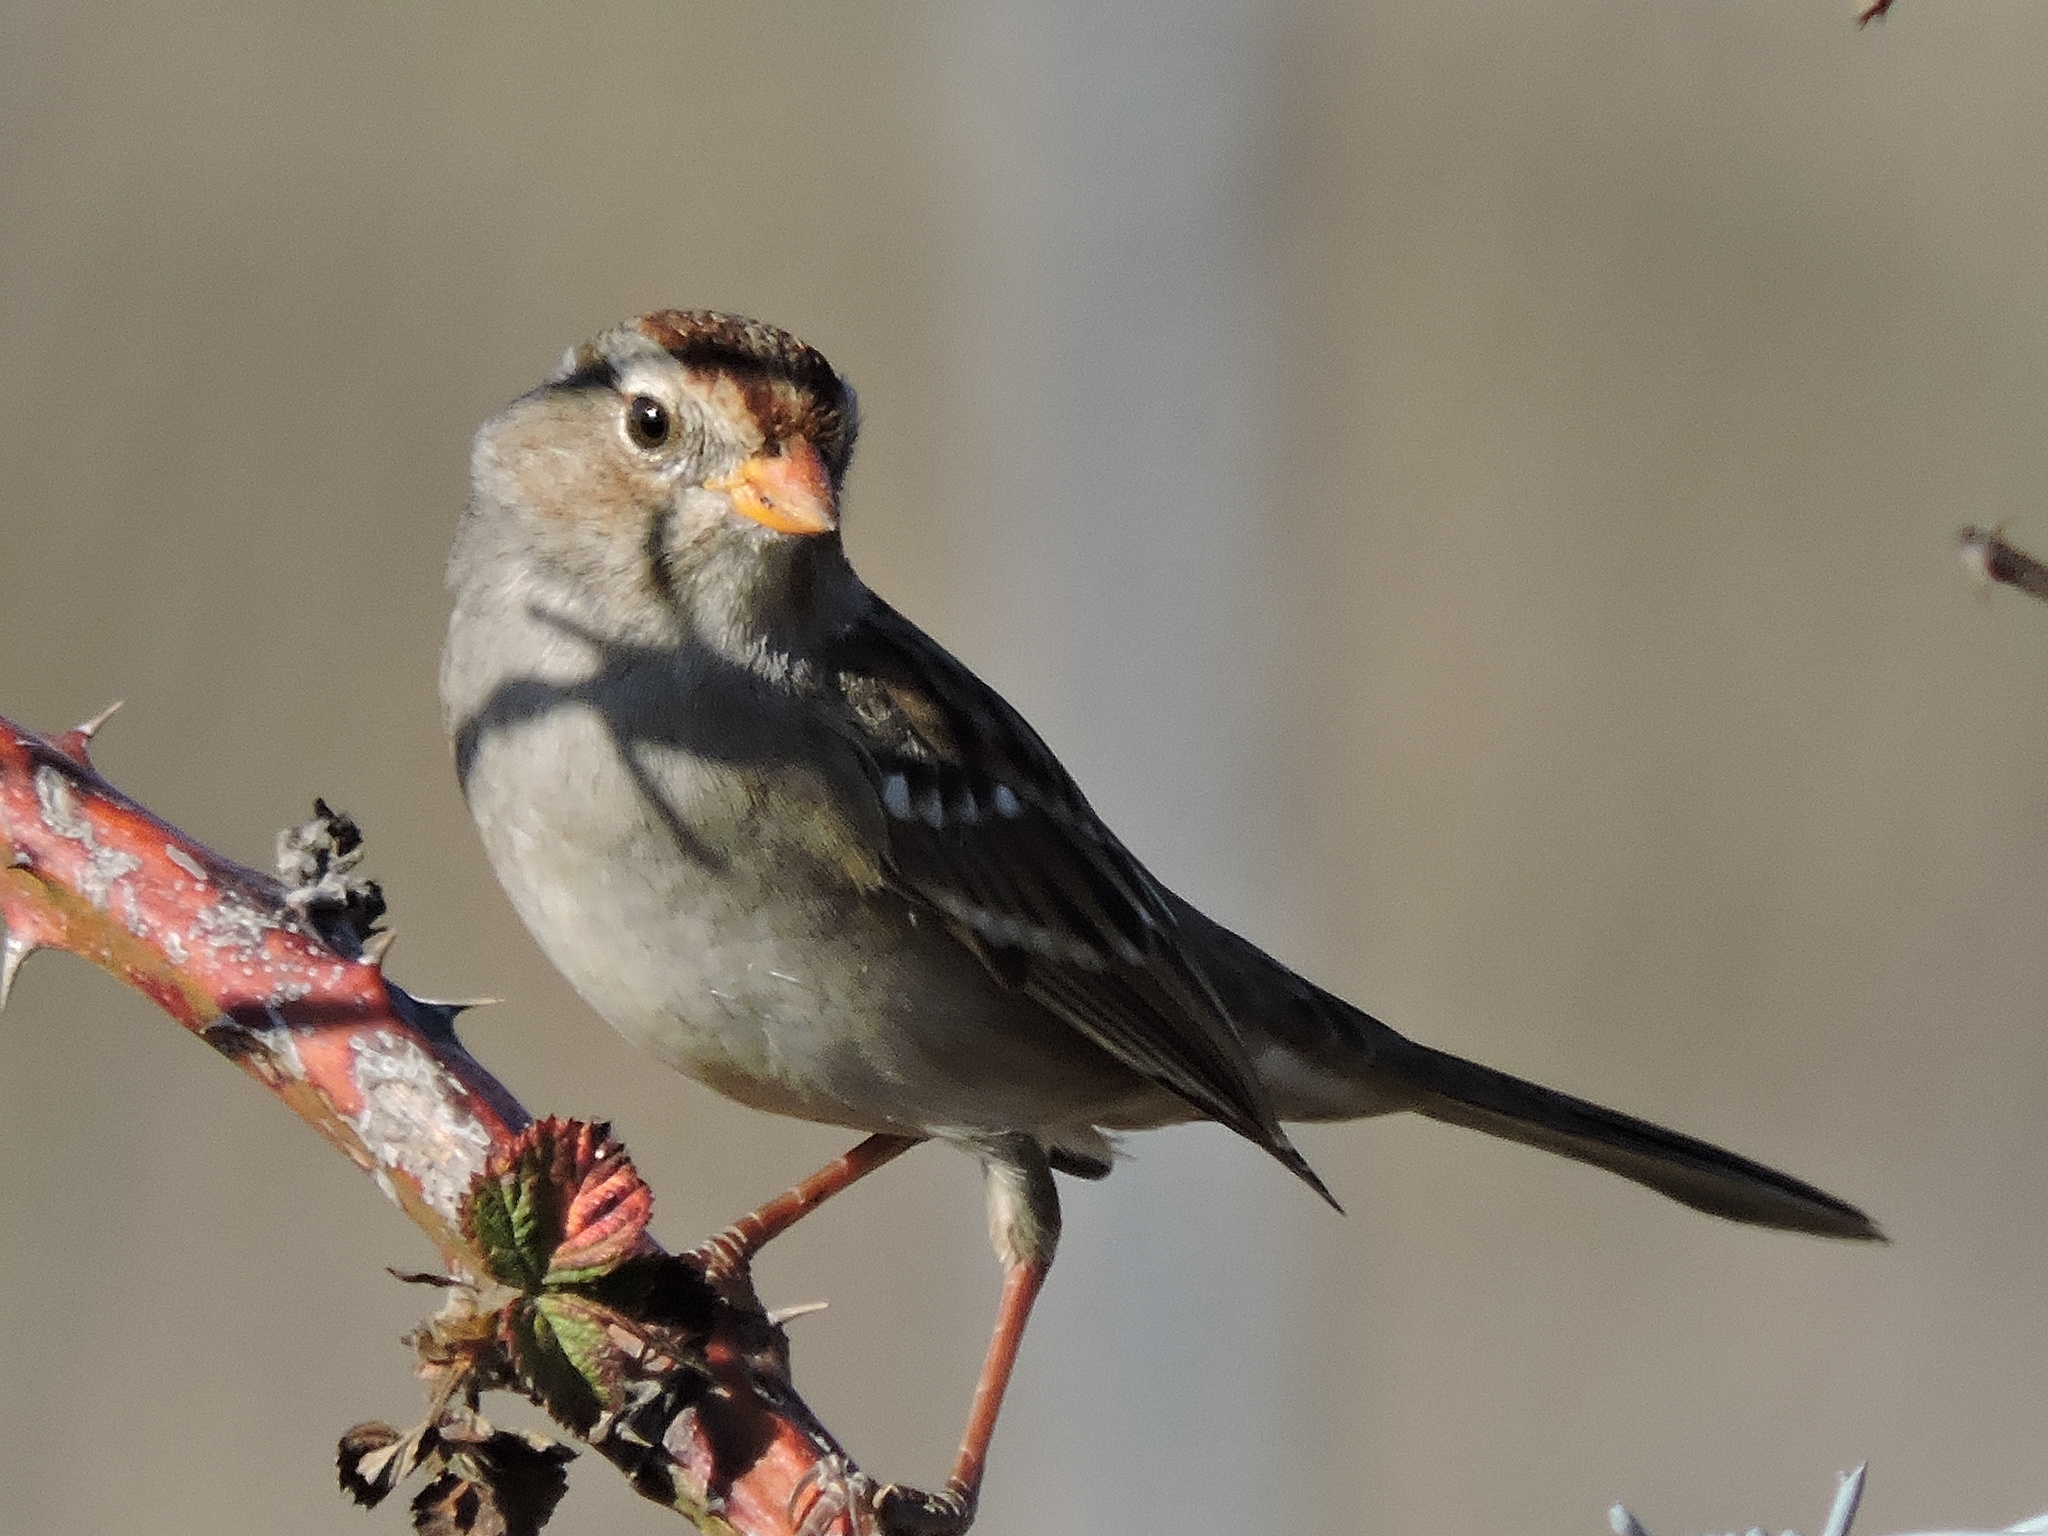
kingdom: Animalia
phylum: Chordata
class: Aves
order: Passeriformes
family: Passerellidae
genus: Zonotrichia
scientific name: Zonotrichia leucophrys
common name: White-crowned sparrow
